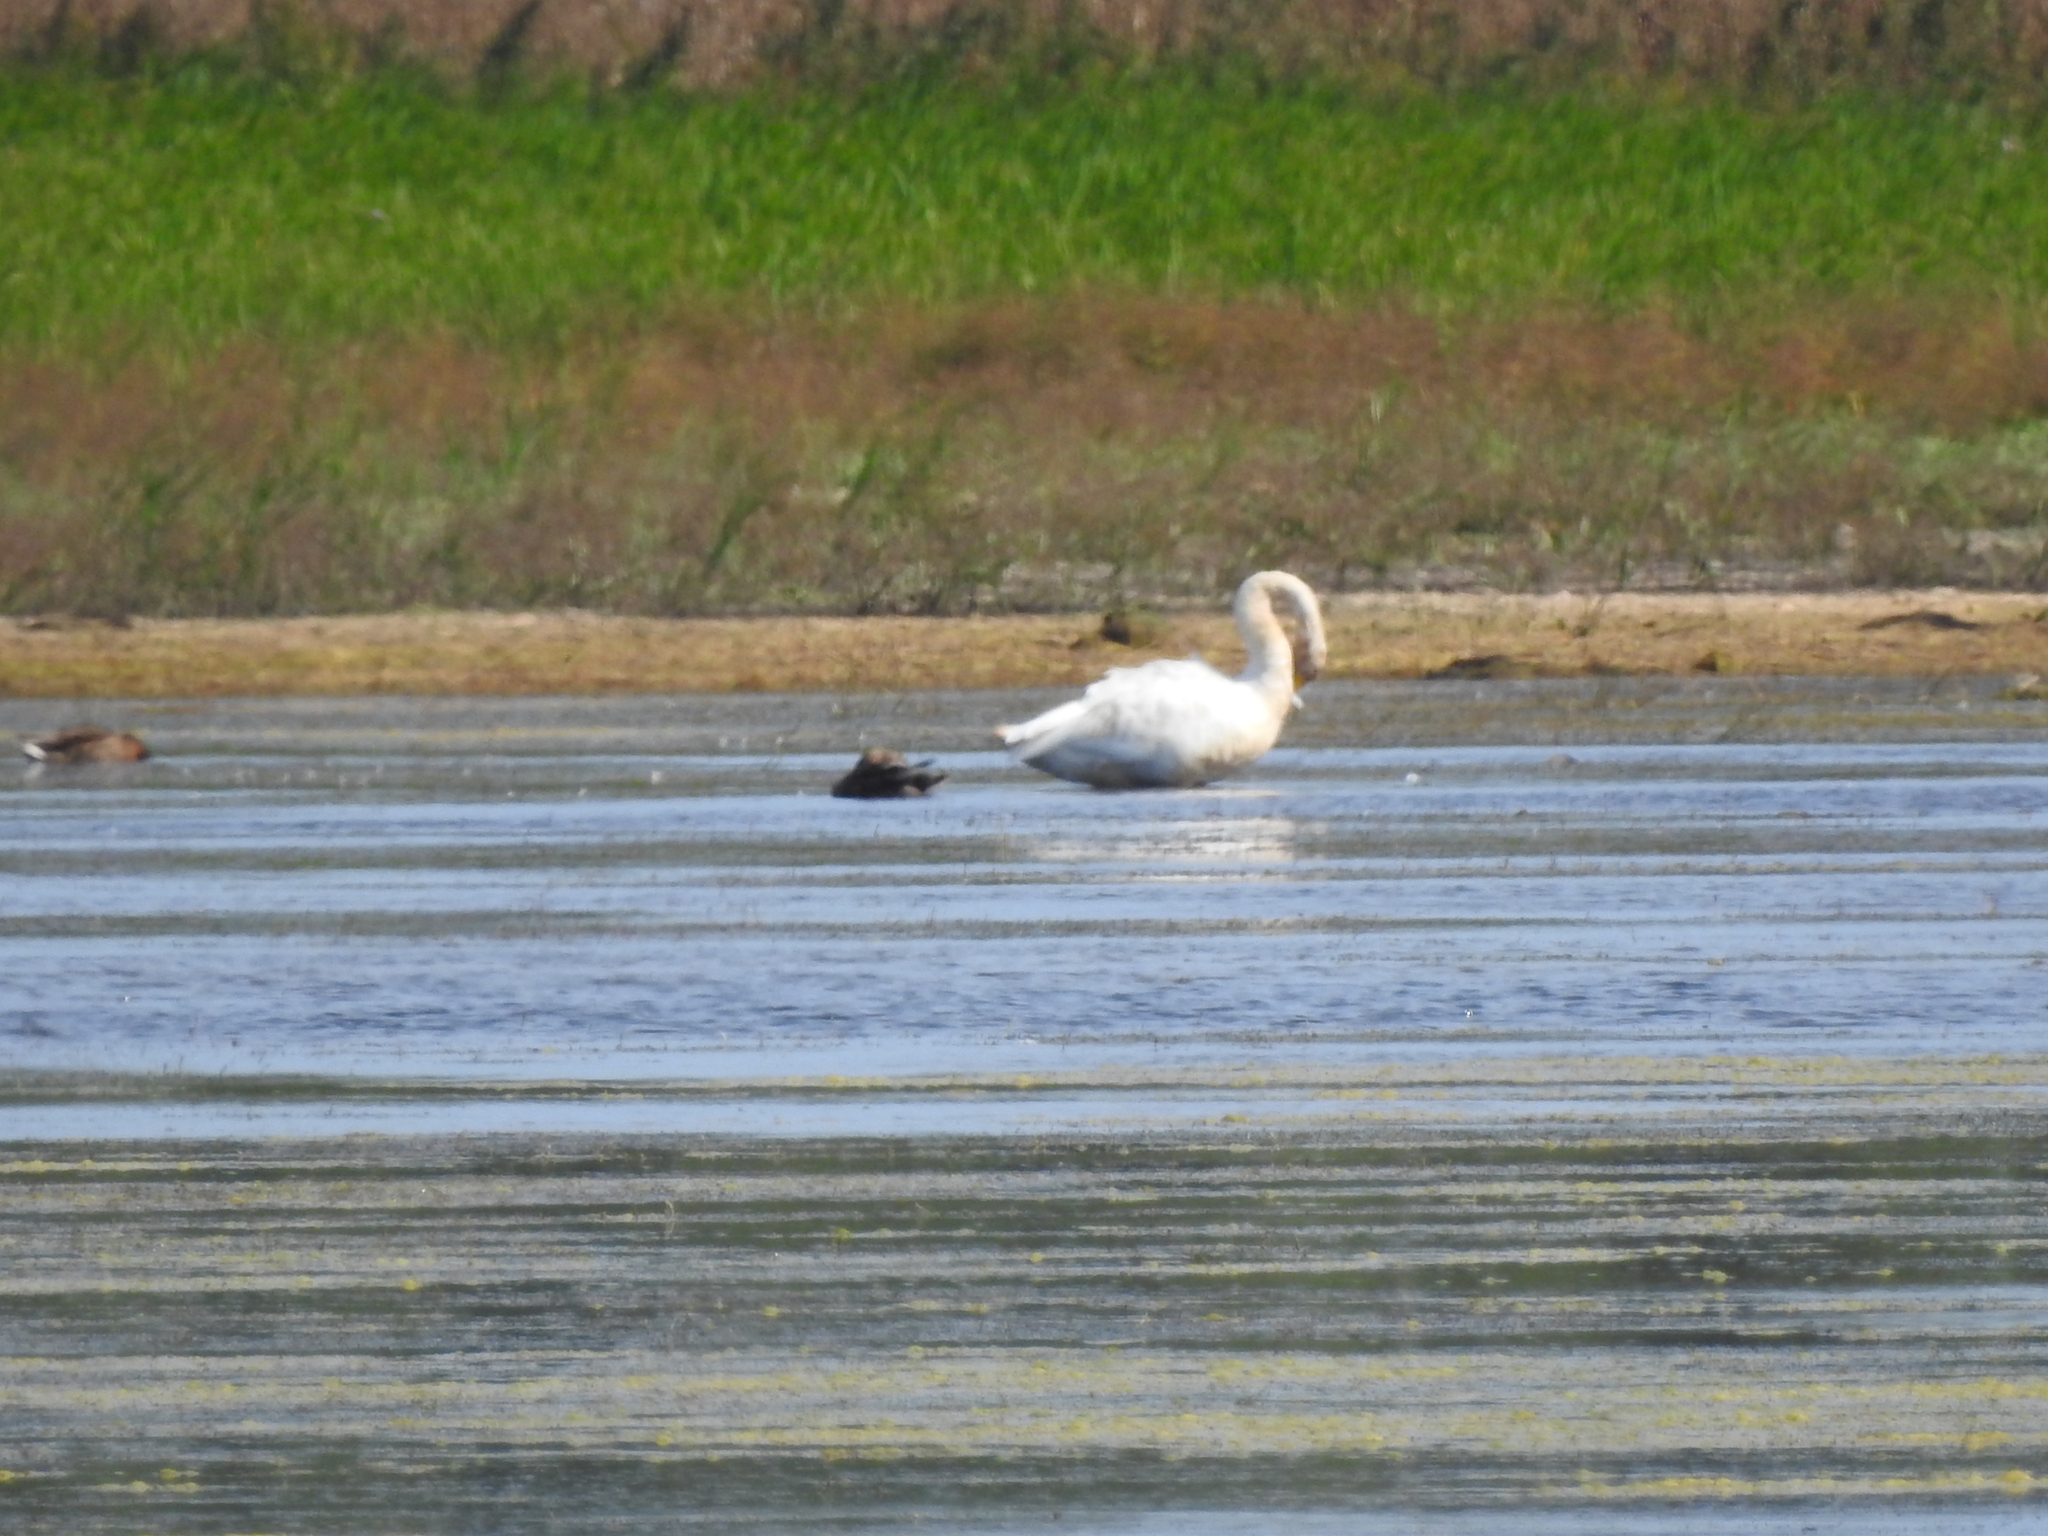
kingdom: Animalia
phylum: Chordata
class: Aves
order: Anseriformes
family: Anatidae
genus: Cygnus
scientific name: Cygnus cygnus
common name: Whooper swan
